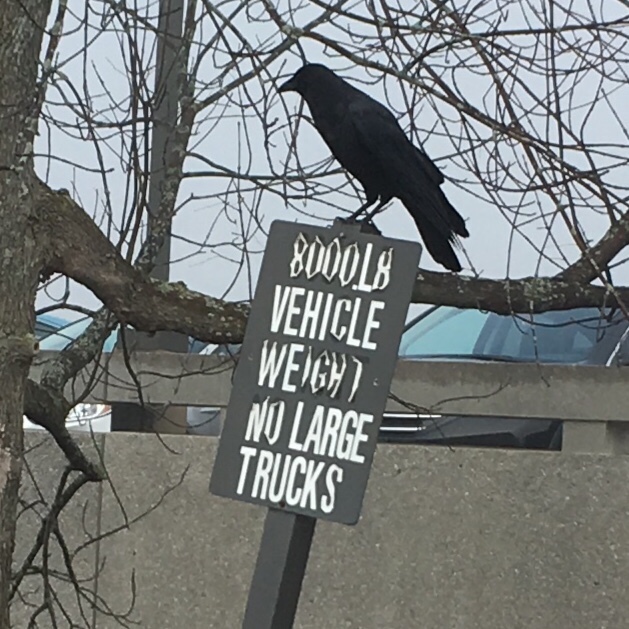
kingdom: Animalia
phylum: Chordata
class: Aves
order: Passeriformes
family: Corvidae
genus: Corvus
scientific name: Corvus brachyrhynchos
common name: American crow
